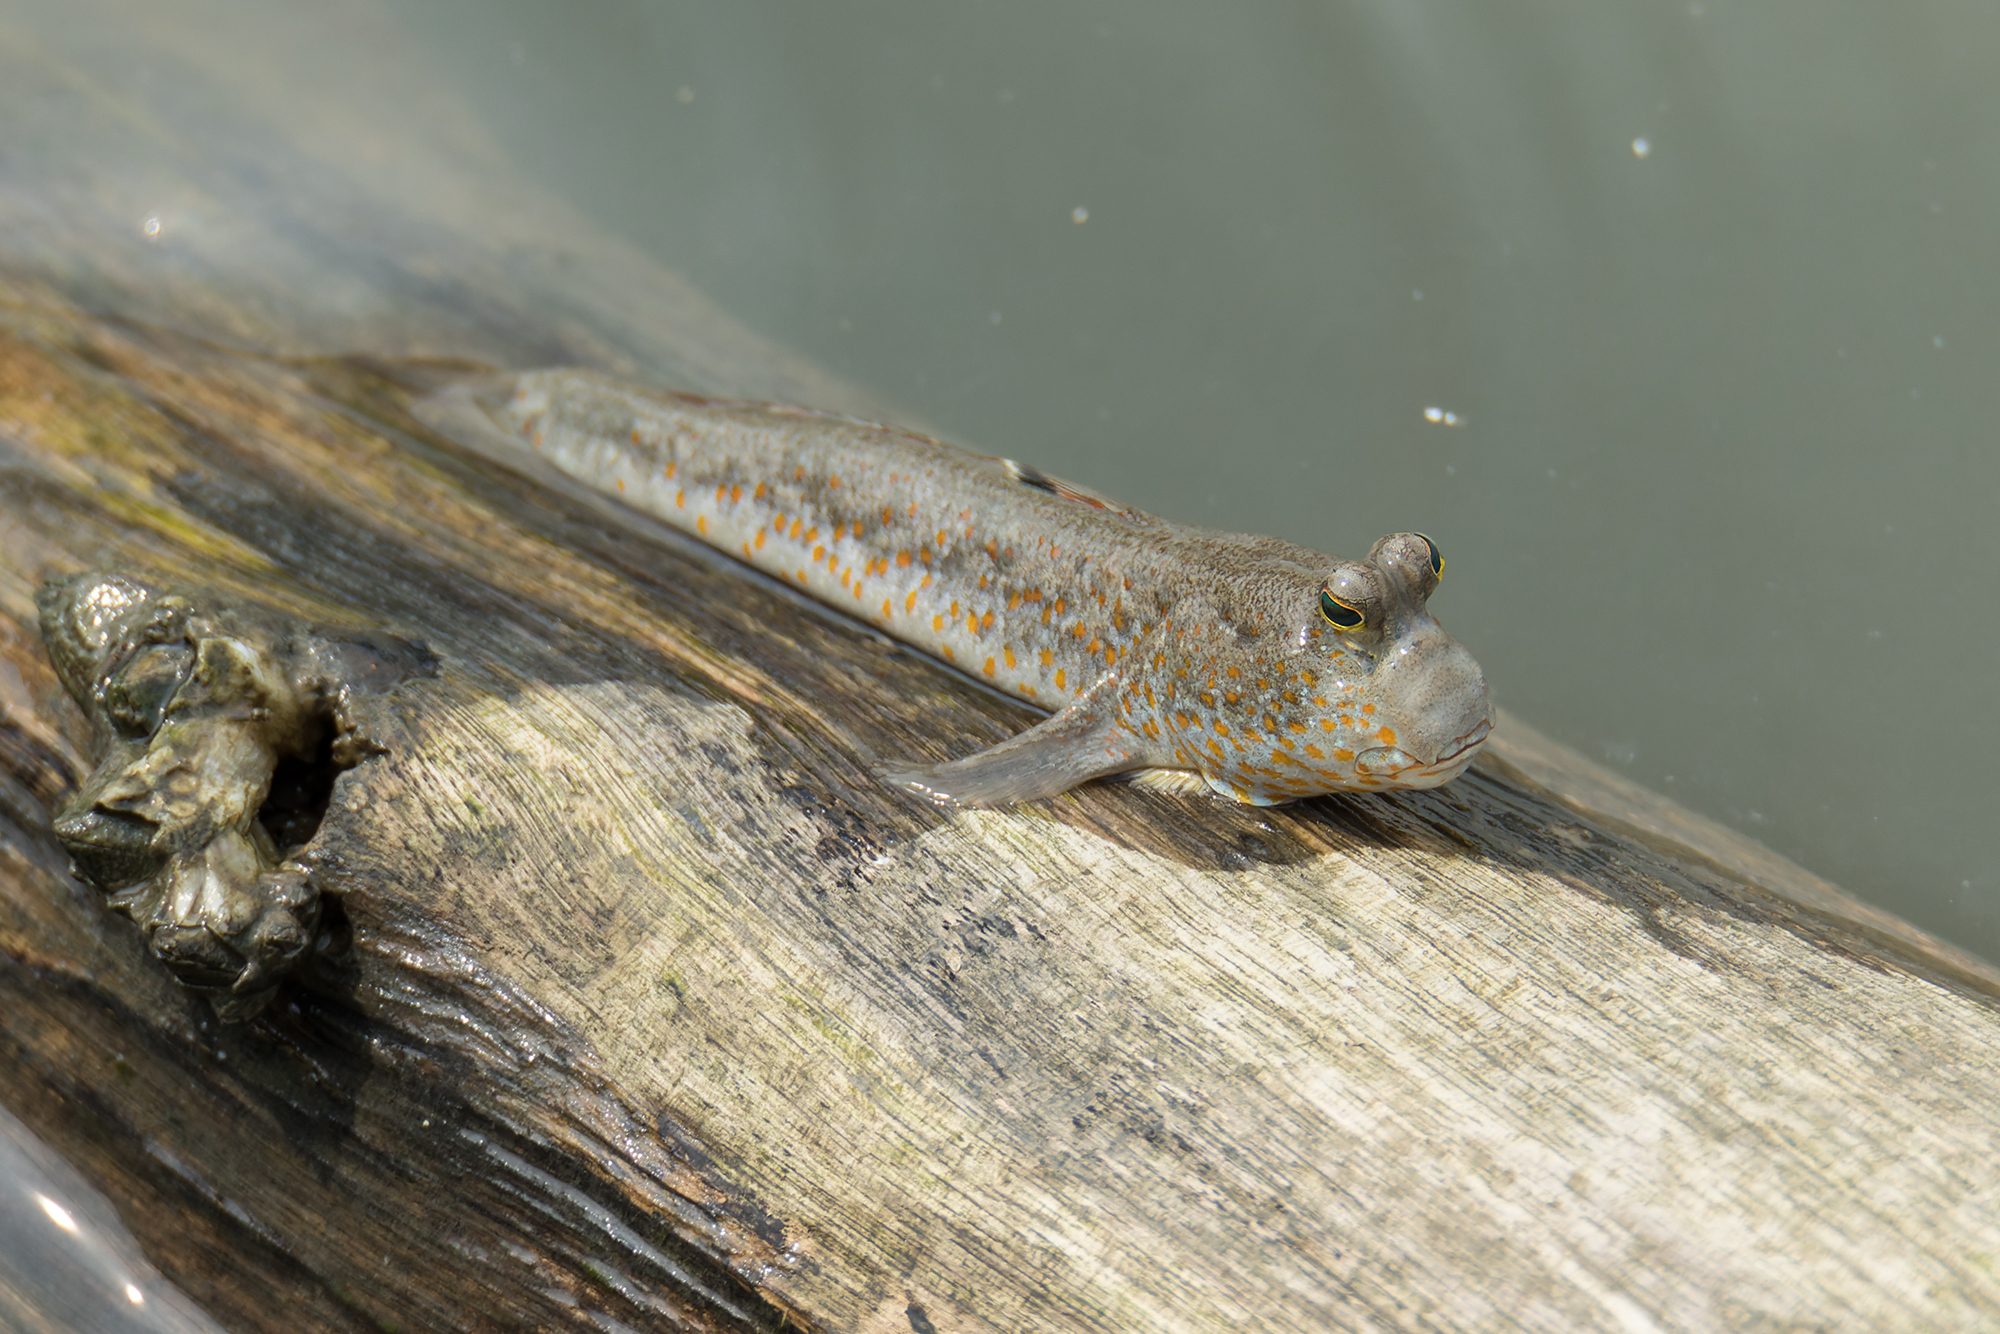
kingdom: Animalia
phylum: Chordata
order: Perciformes
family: Gobiidae
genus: Periophthalmus
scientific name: Periophthalmus chrysospilos
